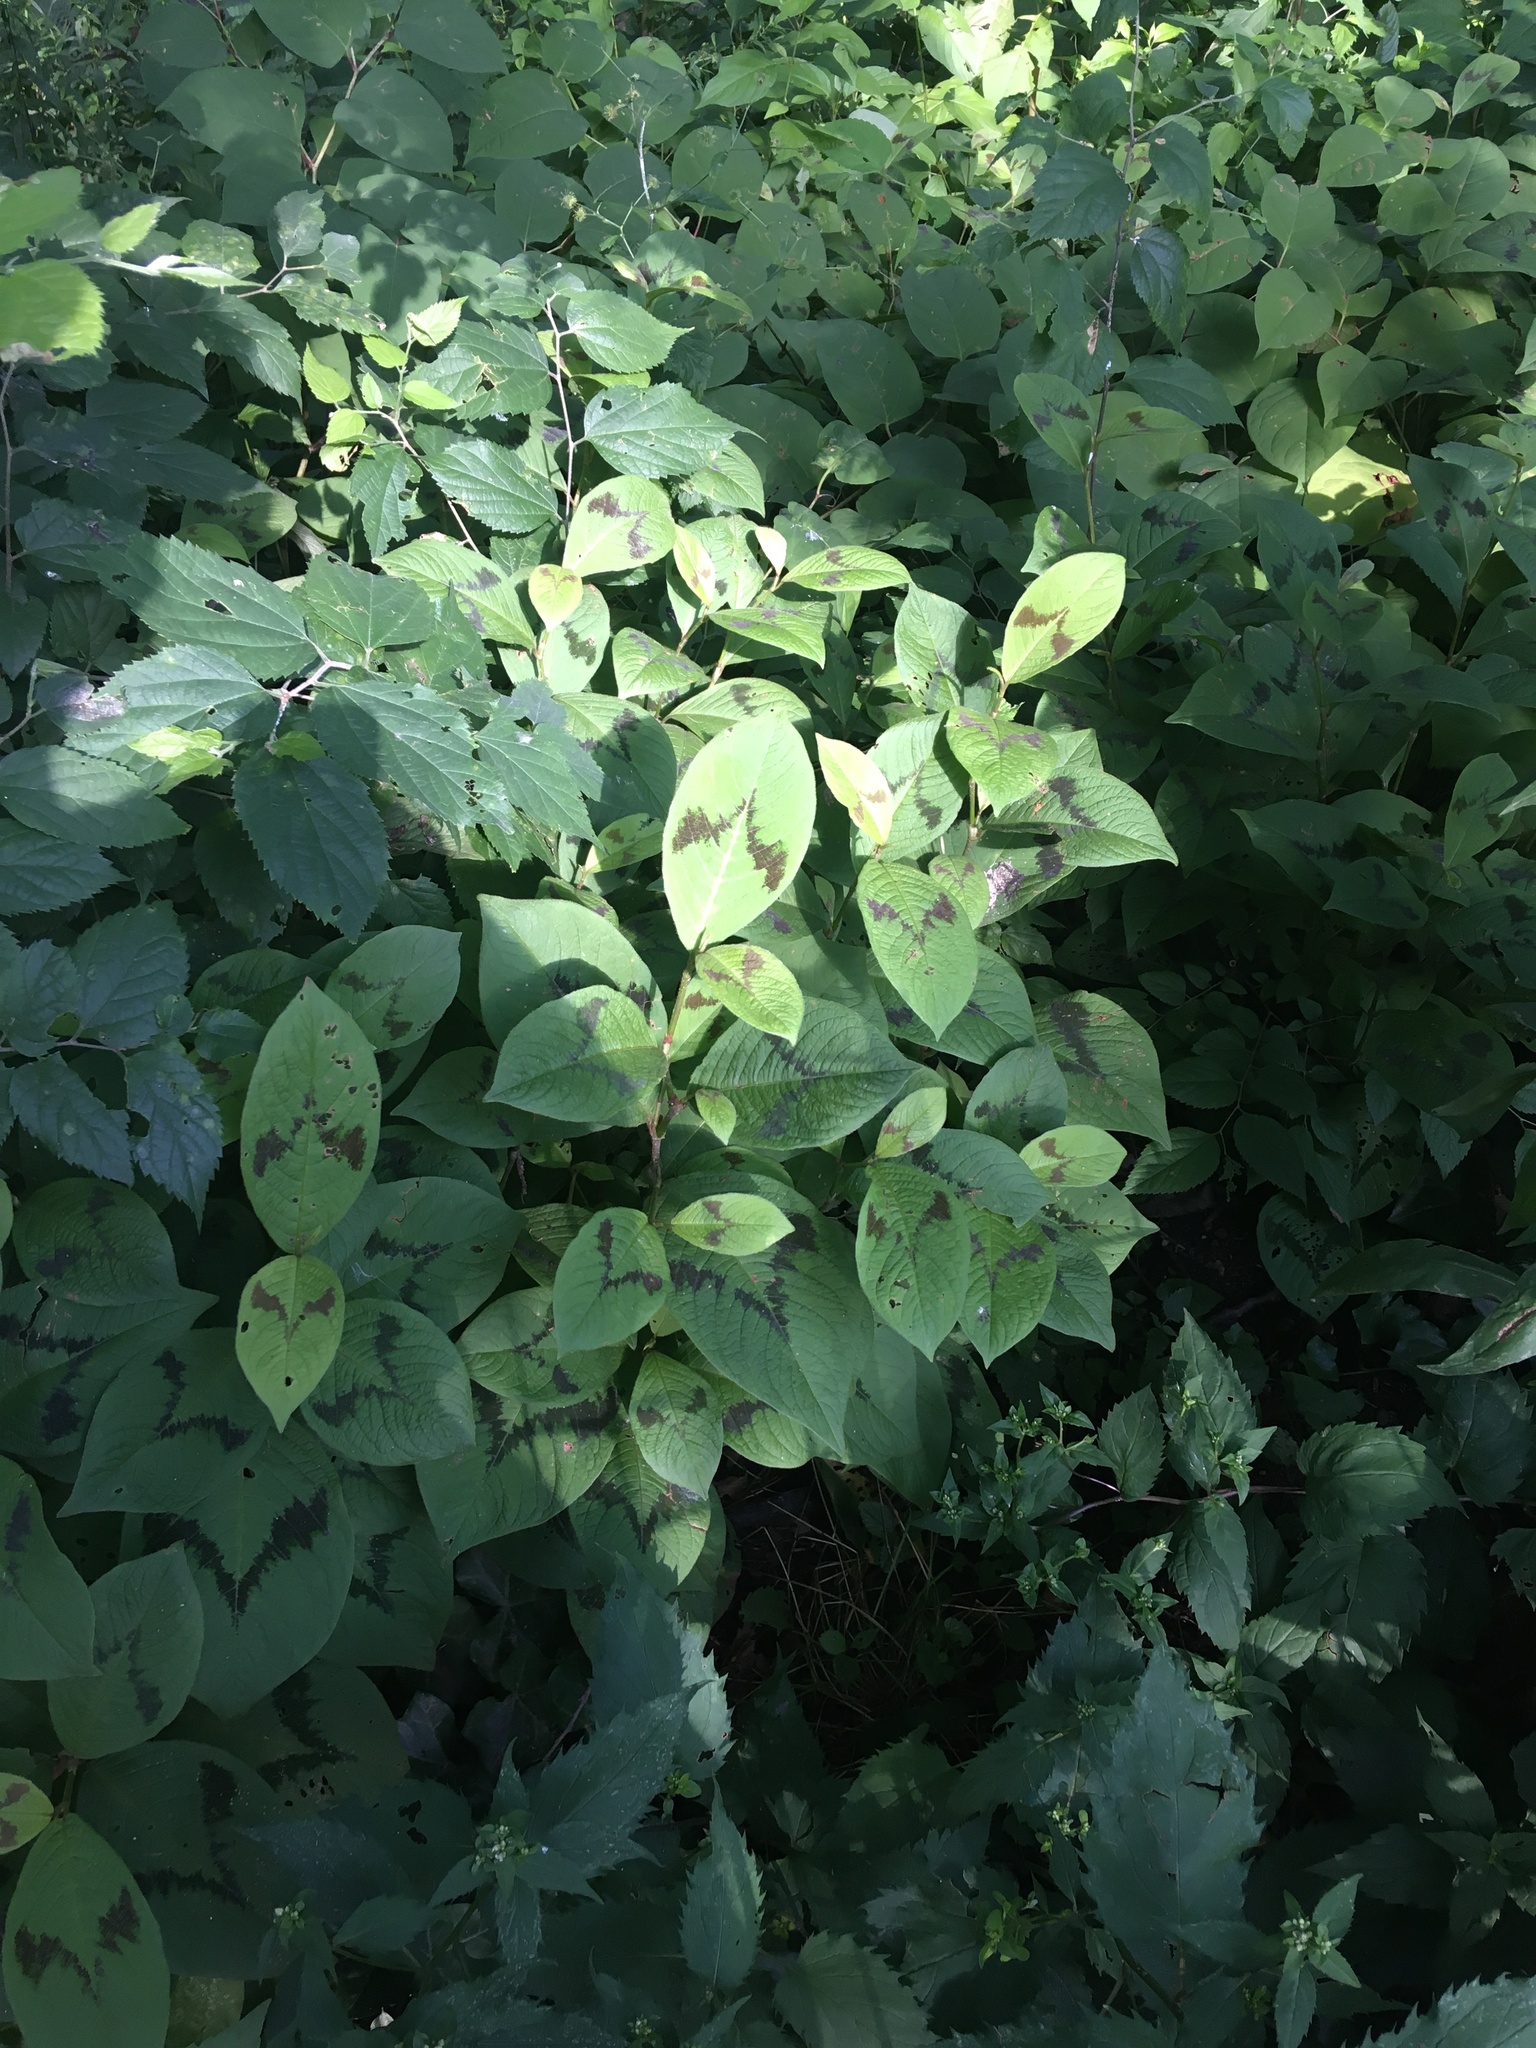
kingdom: Plantae
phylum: Tracheophyta
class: Magnoliopsida
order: Caryophyllales
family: Polygonaceae
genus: Persicaria
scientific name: Persicaria filiformis
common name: Asian jumpseed
